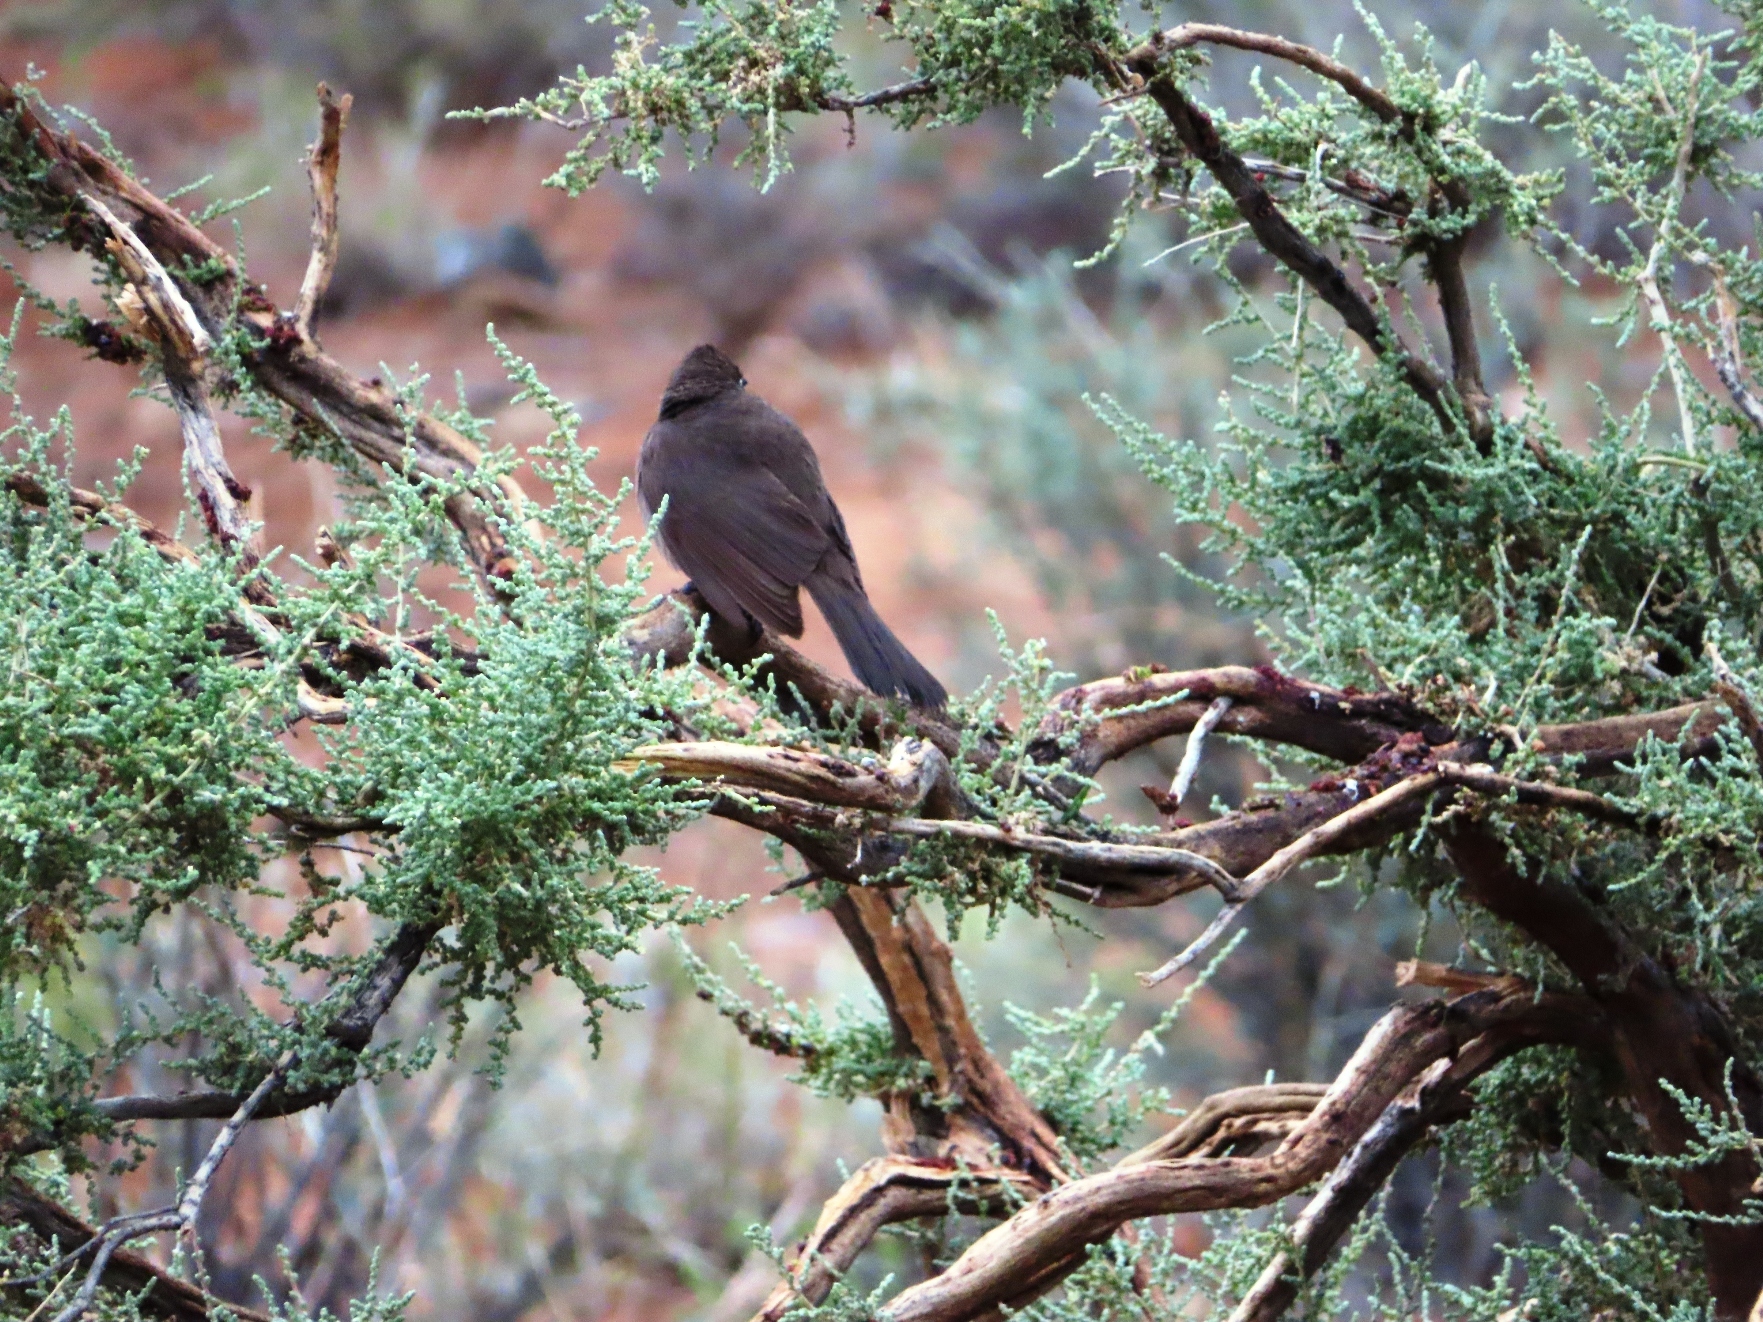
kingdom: Animalia
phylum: Chordata
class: Aves
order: Passeriformes
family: Pycnonotidae
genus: Pycnonotus
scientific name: Pycnonotus capensis
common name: Cape bulbul
